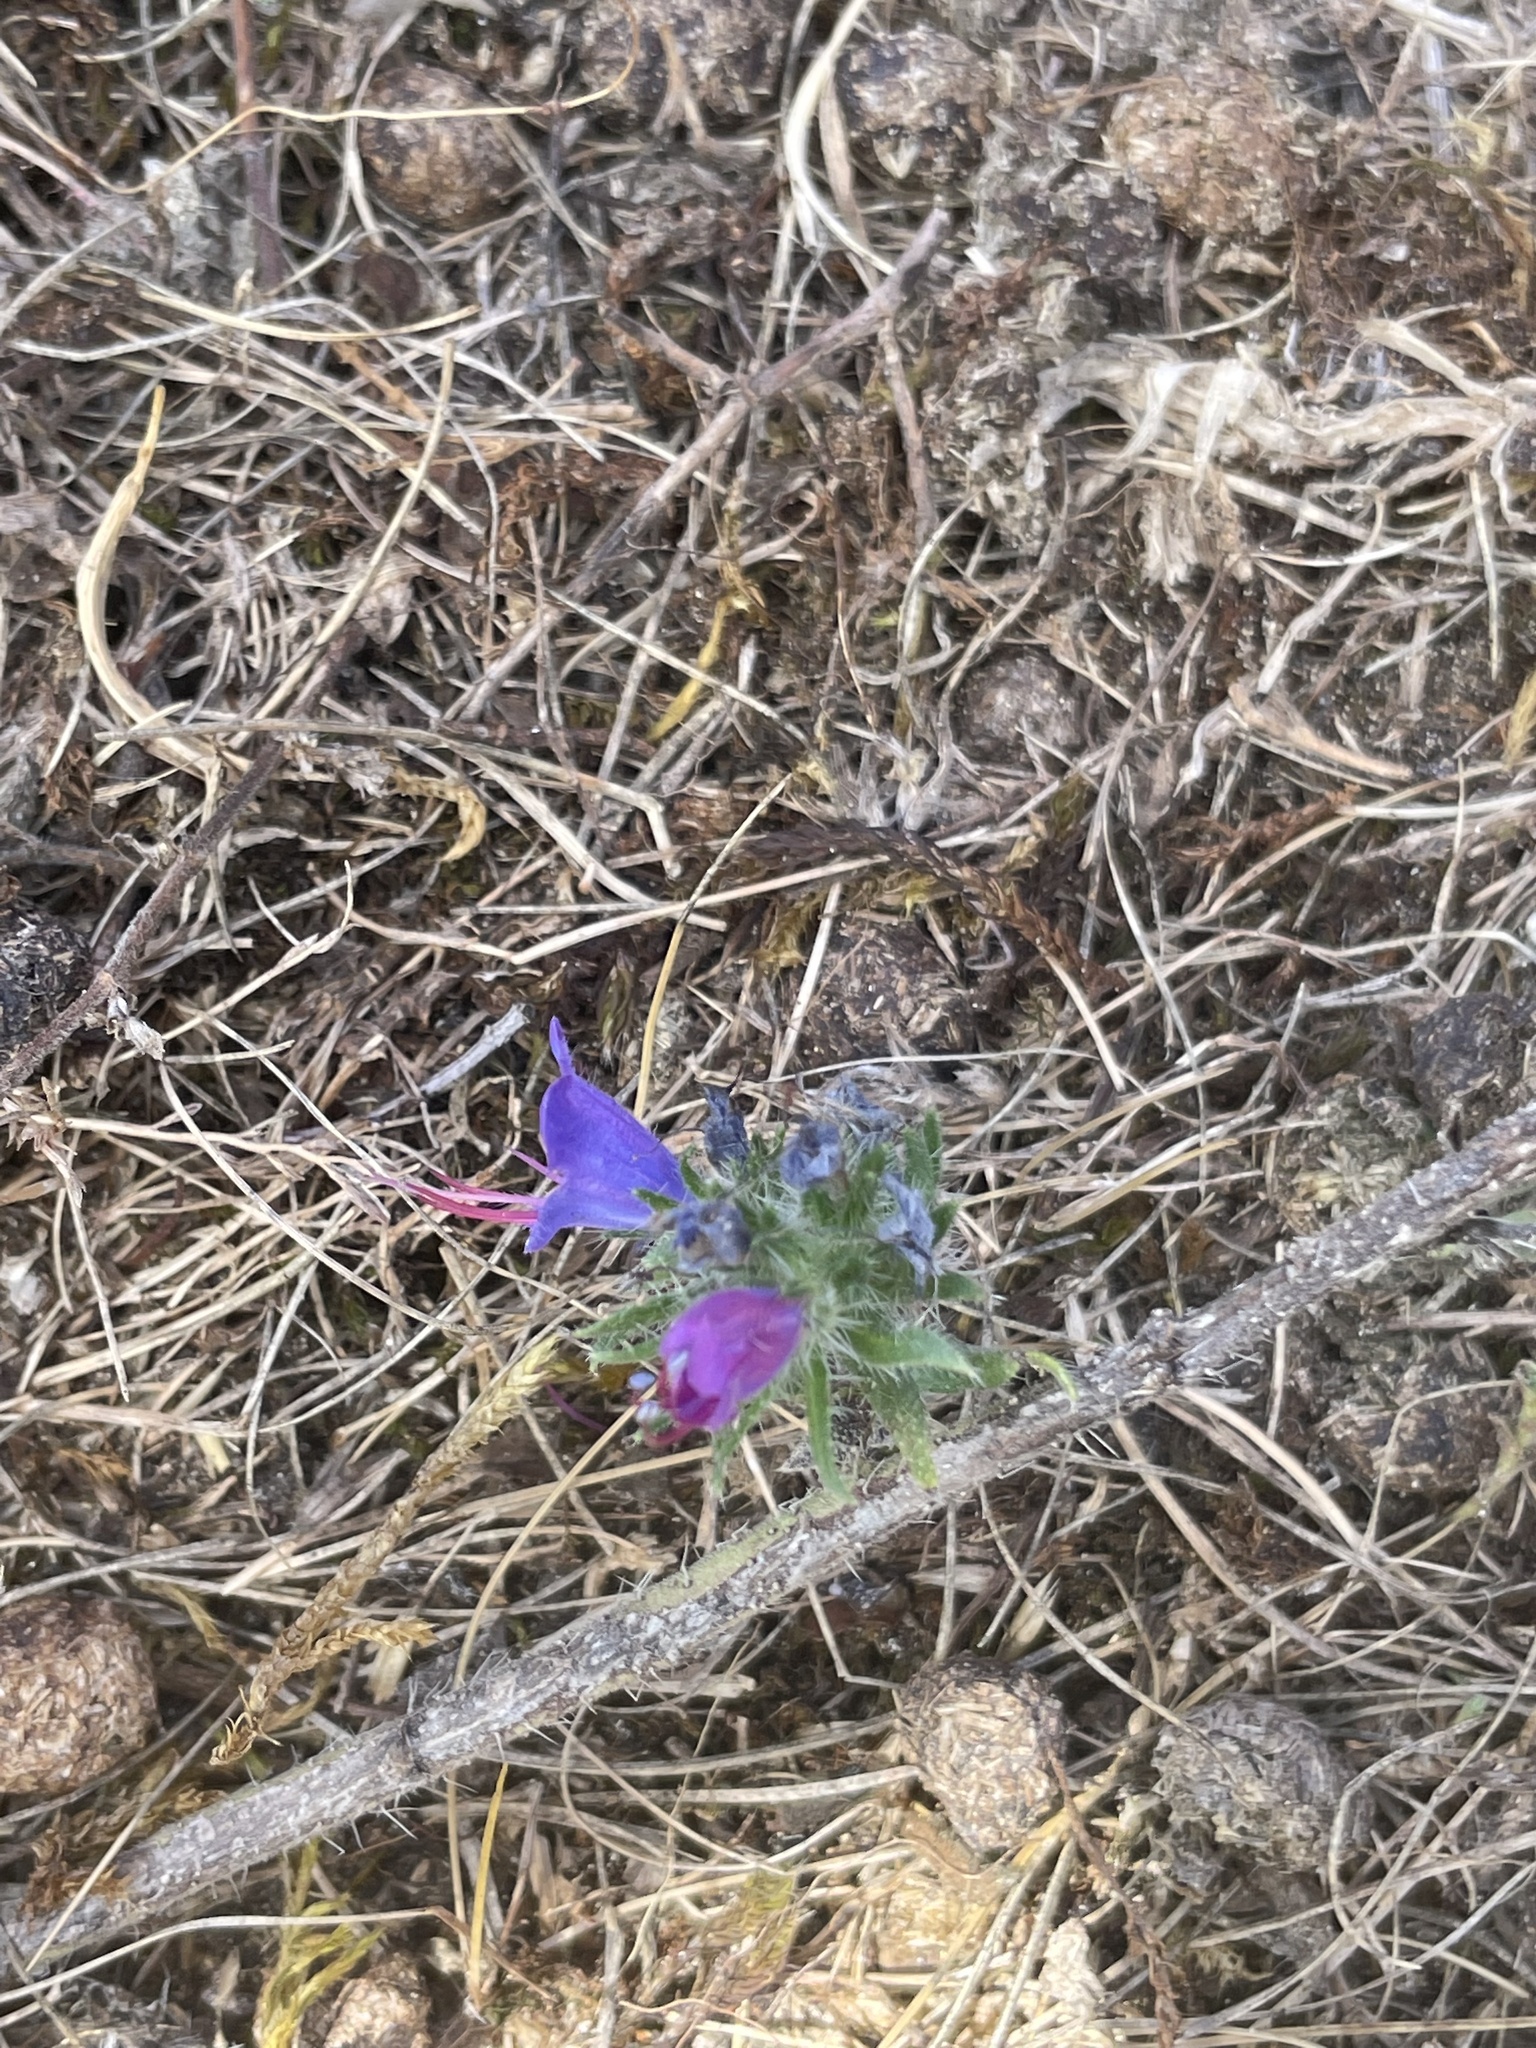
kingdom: Plantae
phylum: Tracheophyta
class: Magnoliopsida
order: Boraginales
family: Boraginaceae
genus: Echium
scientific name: Echium vulgare
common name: Common viper's bugloss
